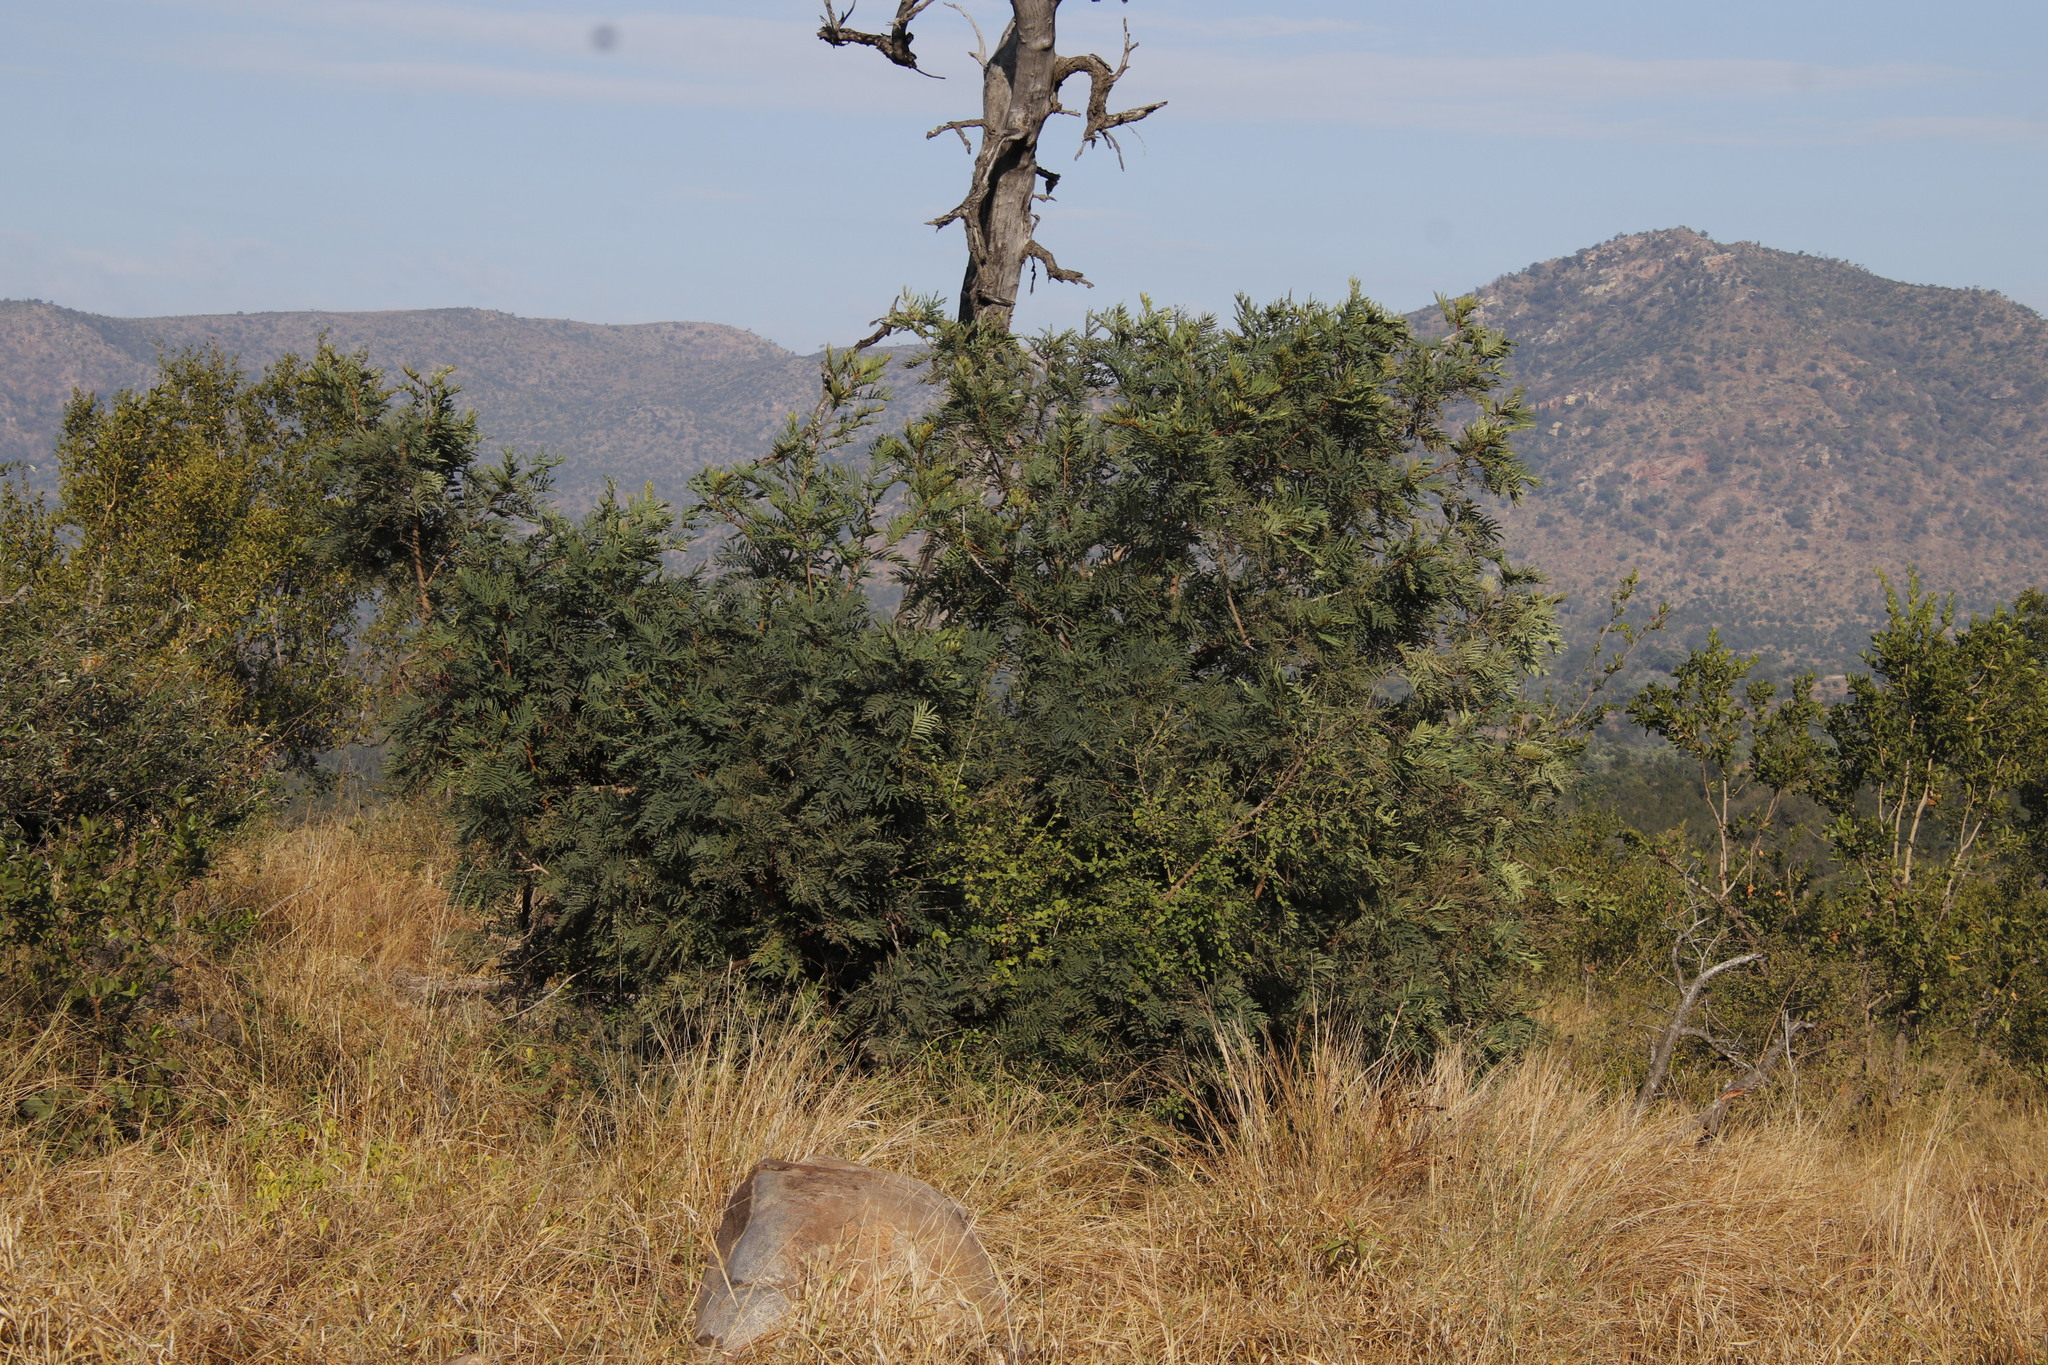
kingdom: Plantae
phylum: Tracheophyta
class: Magnoliopsida
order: Fabales
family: Fabaceae
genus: Peltophorum
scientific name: Peltophorum africanum
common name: African black wattle
